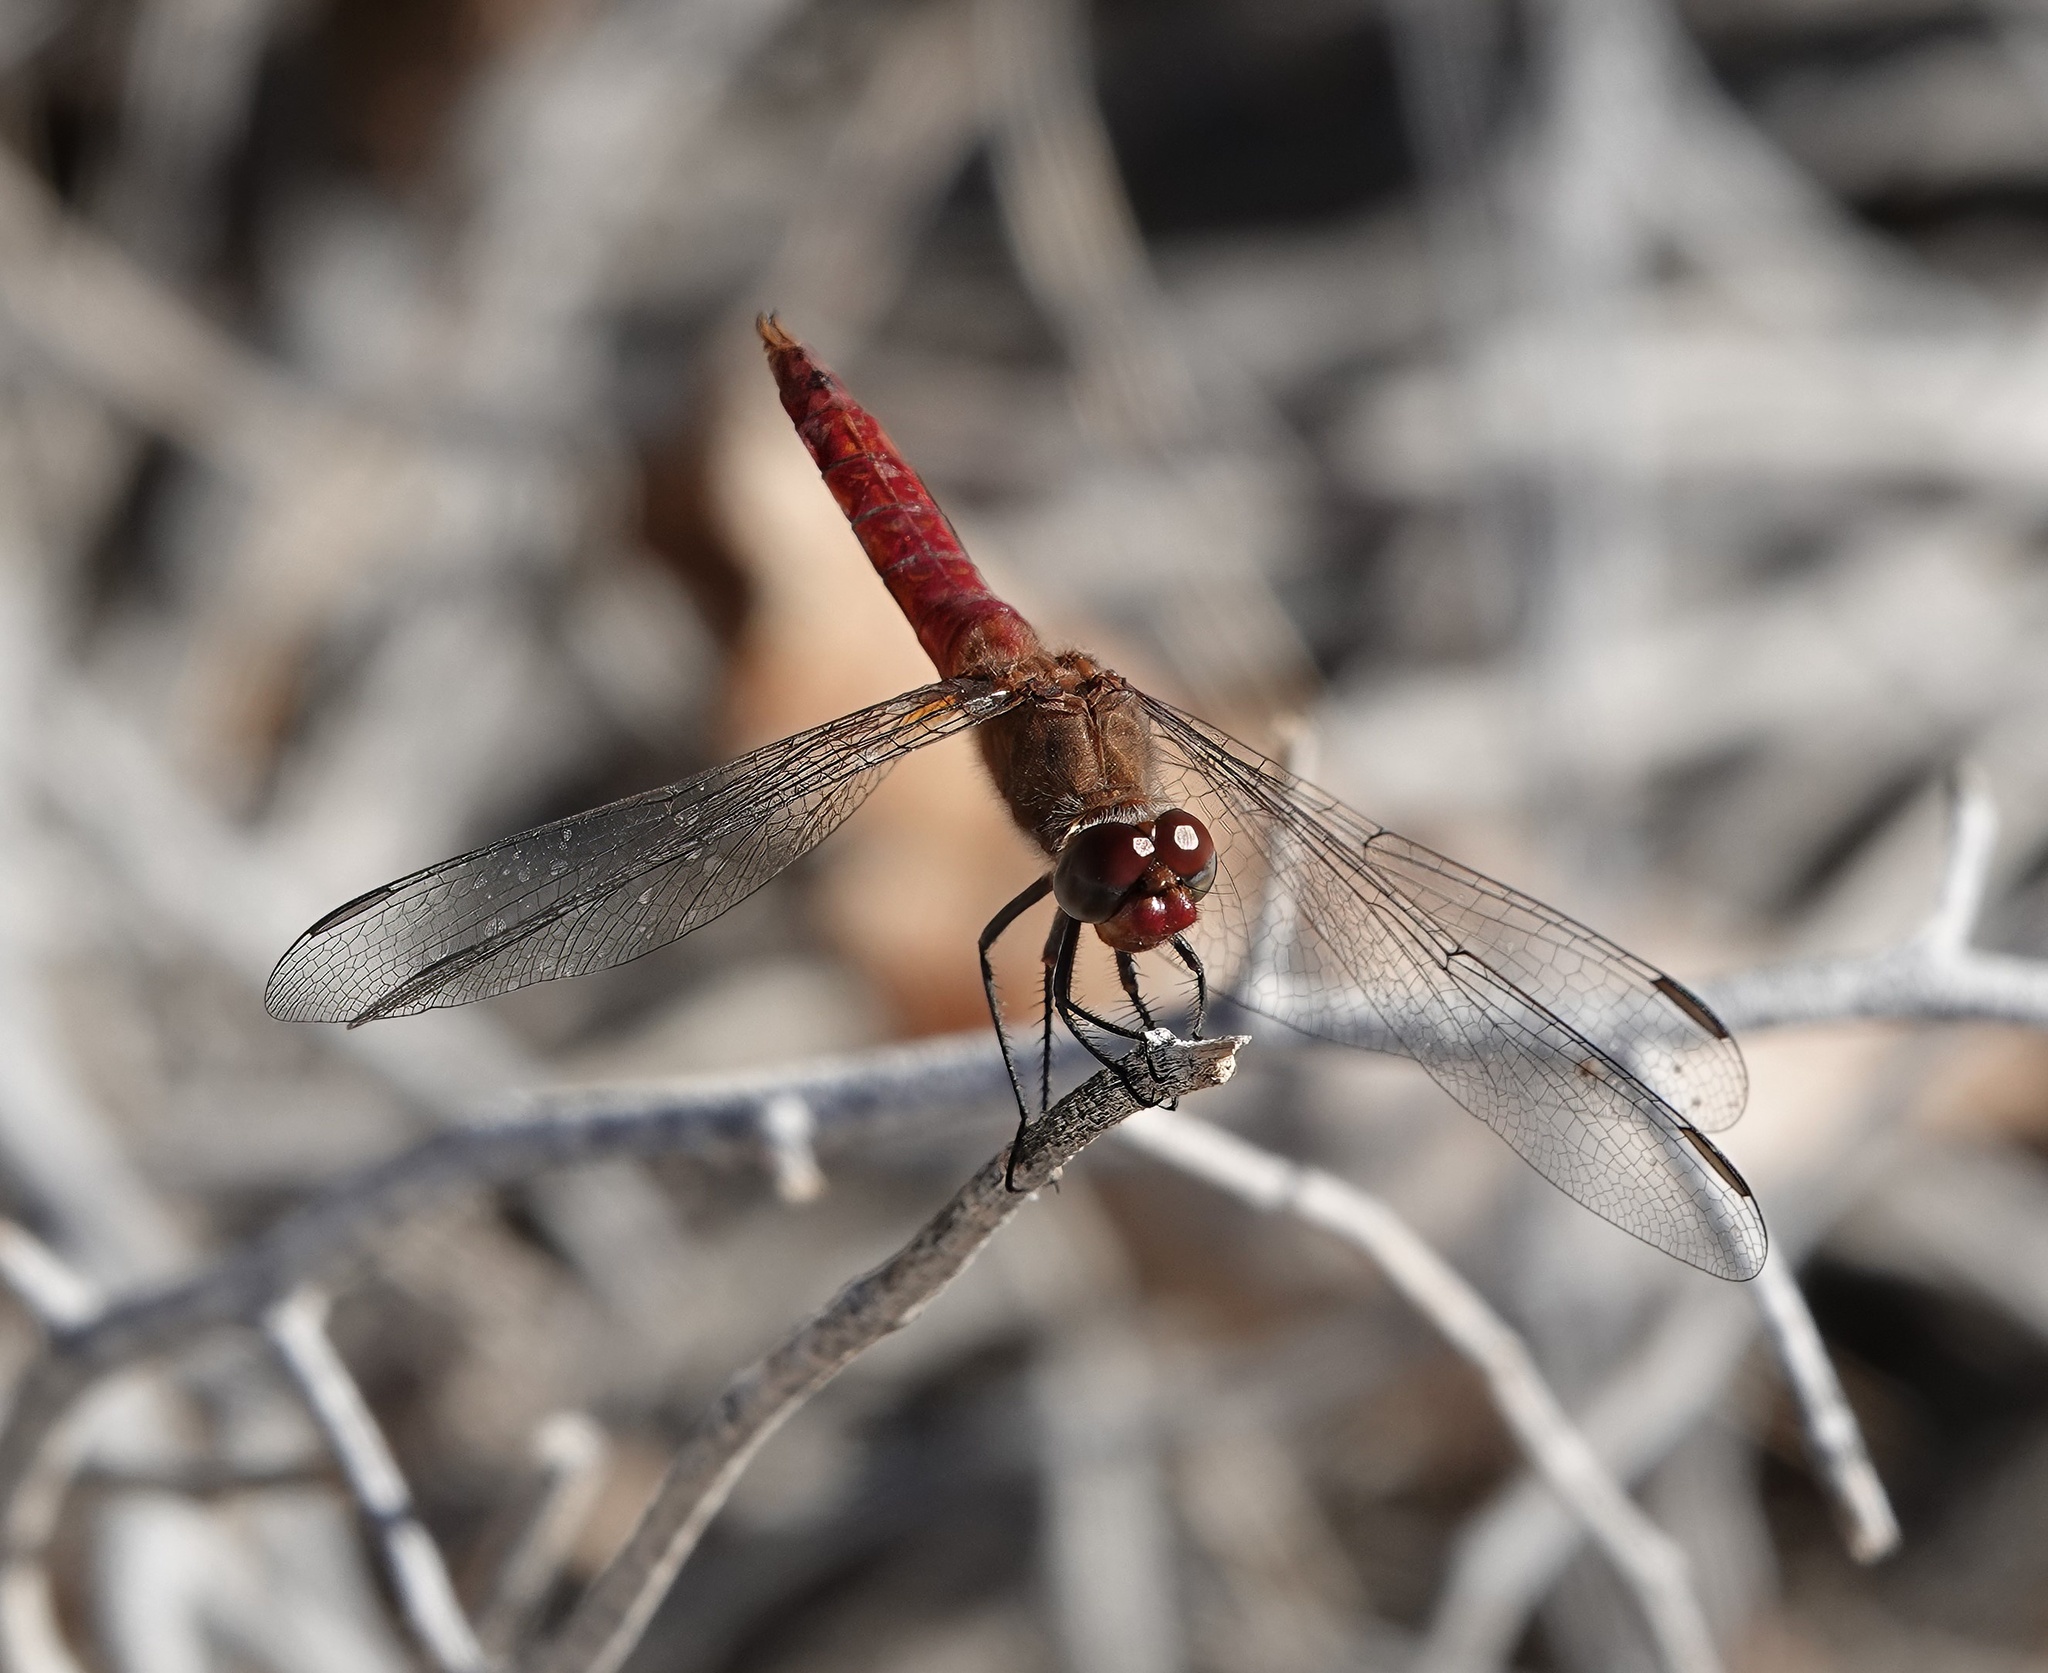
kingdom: Animalia
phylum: Arthropoda
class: Insecta
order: Odonata
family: Libellulidae
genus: Brachymesia
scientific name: Brachymesia furcata
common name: Red-taled pennant
